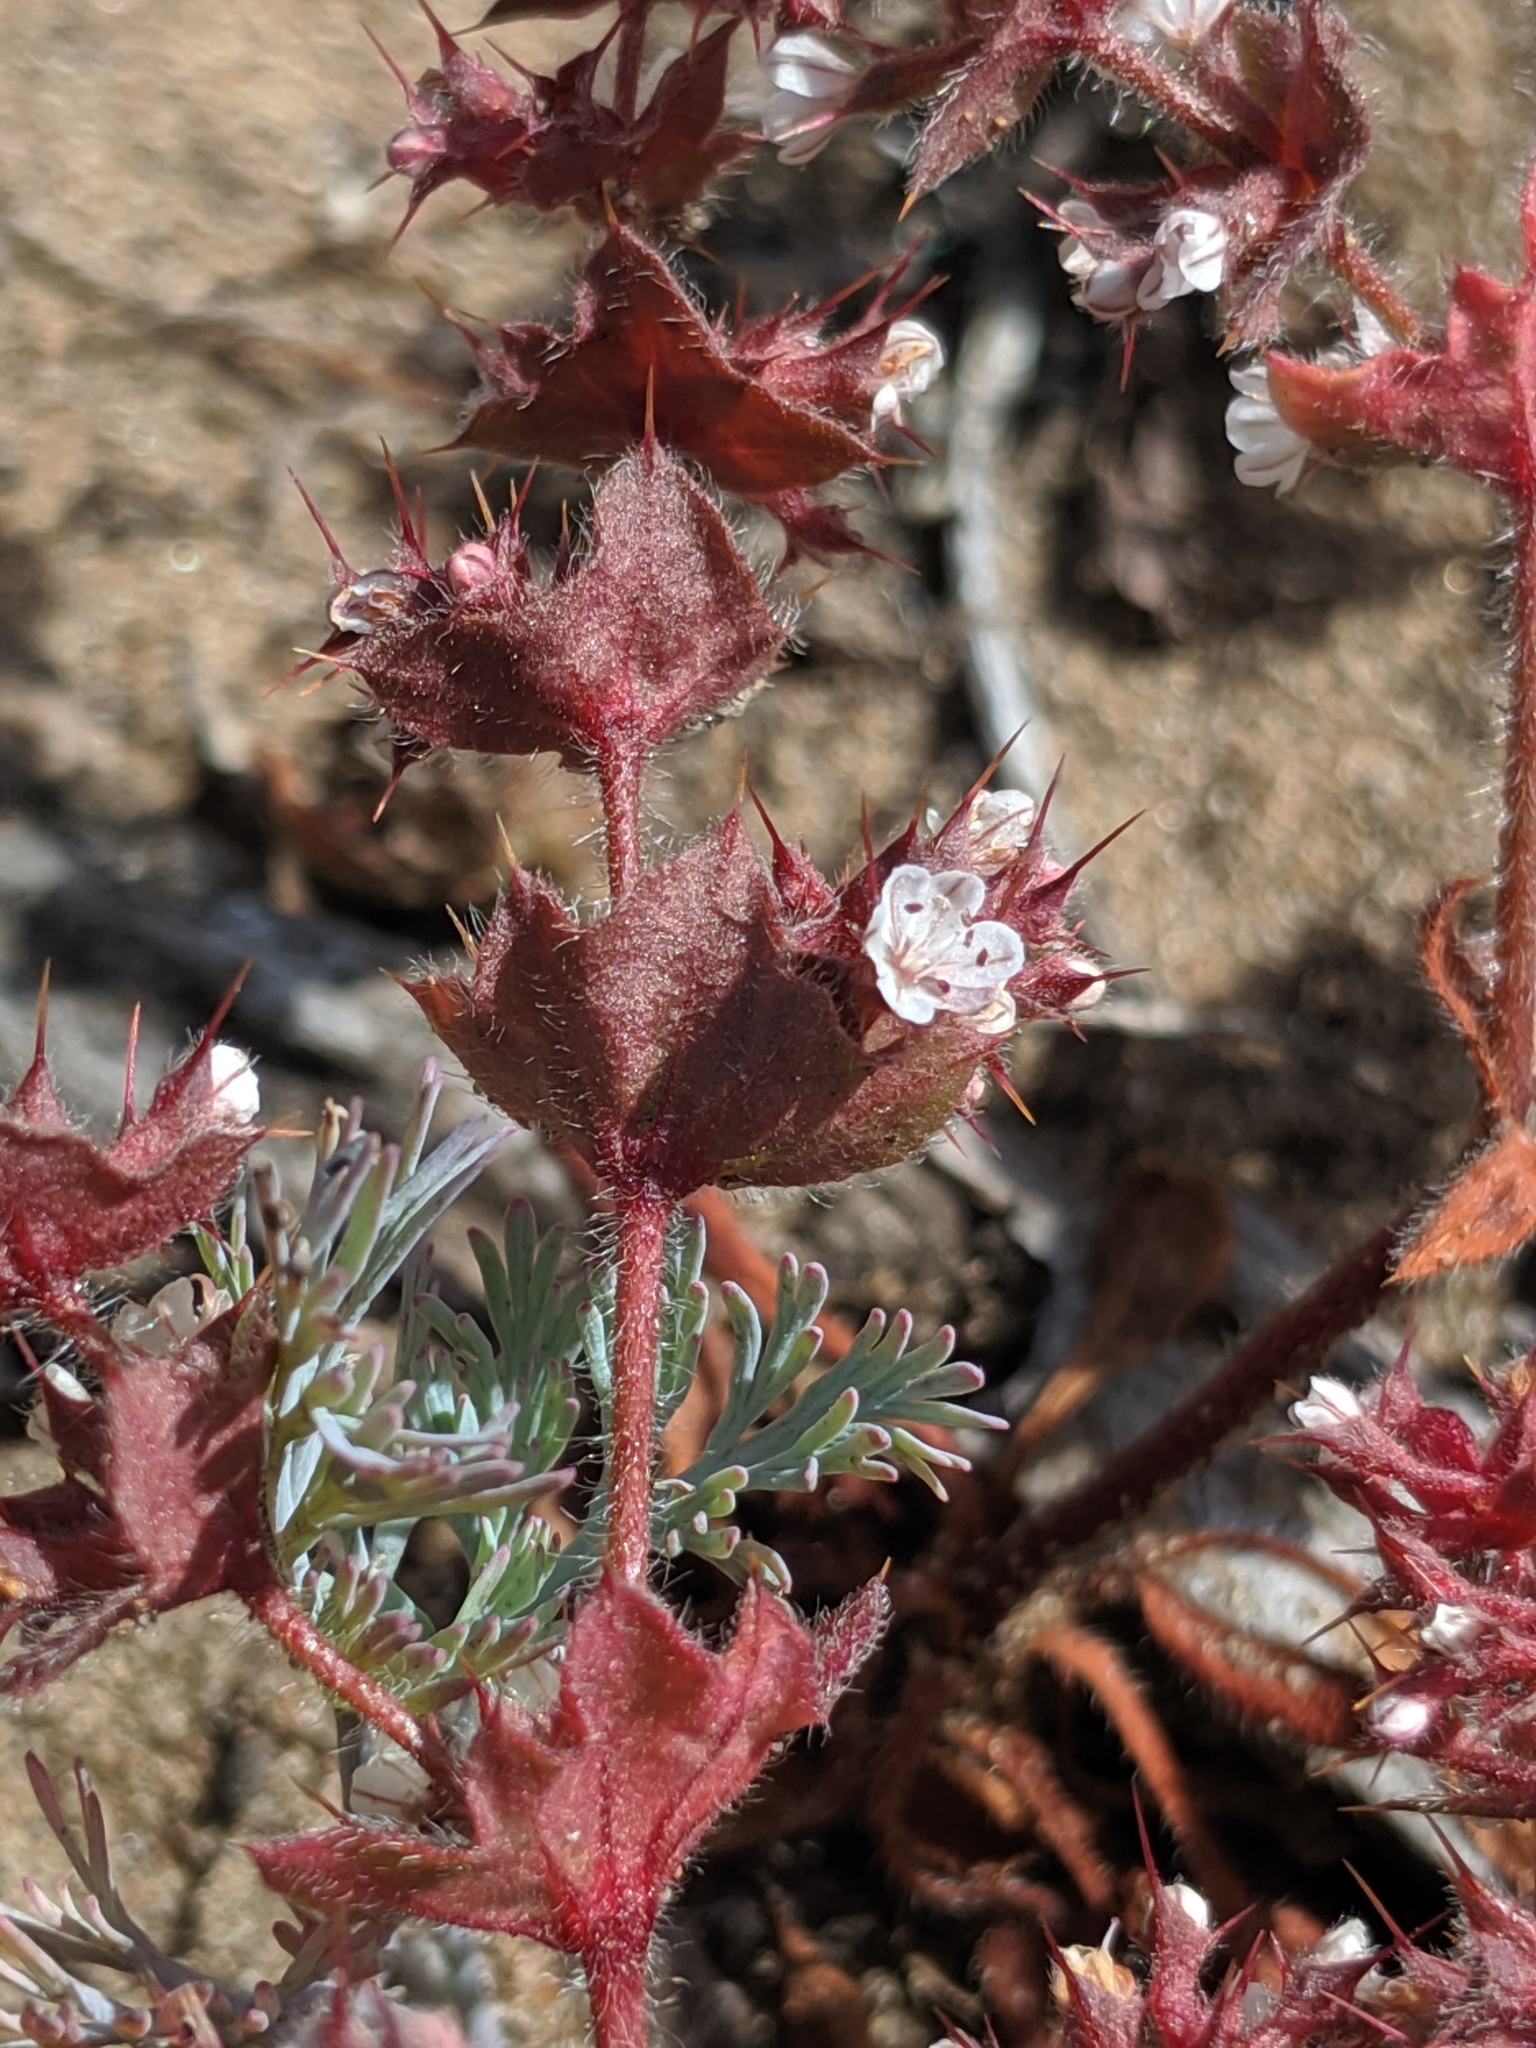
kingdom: Plantae
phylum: Tracheophyta
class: Magnoliopsida
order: Caryophyllales
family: Polygonaceae
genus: Mucronea
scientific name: Mucronea californica
